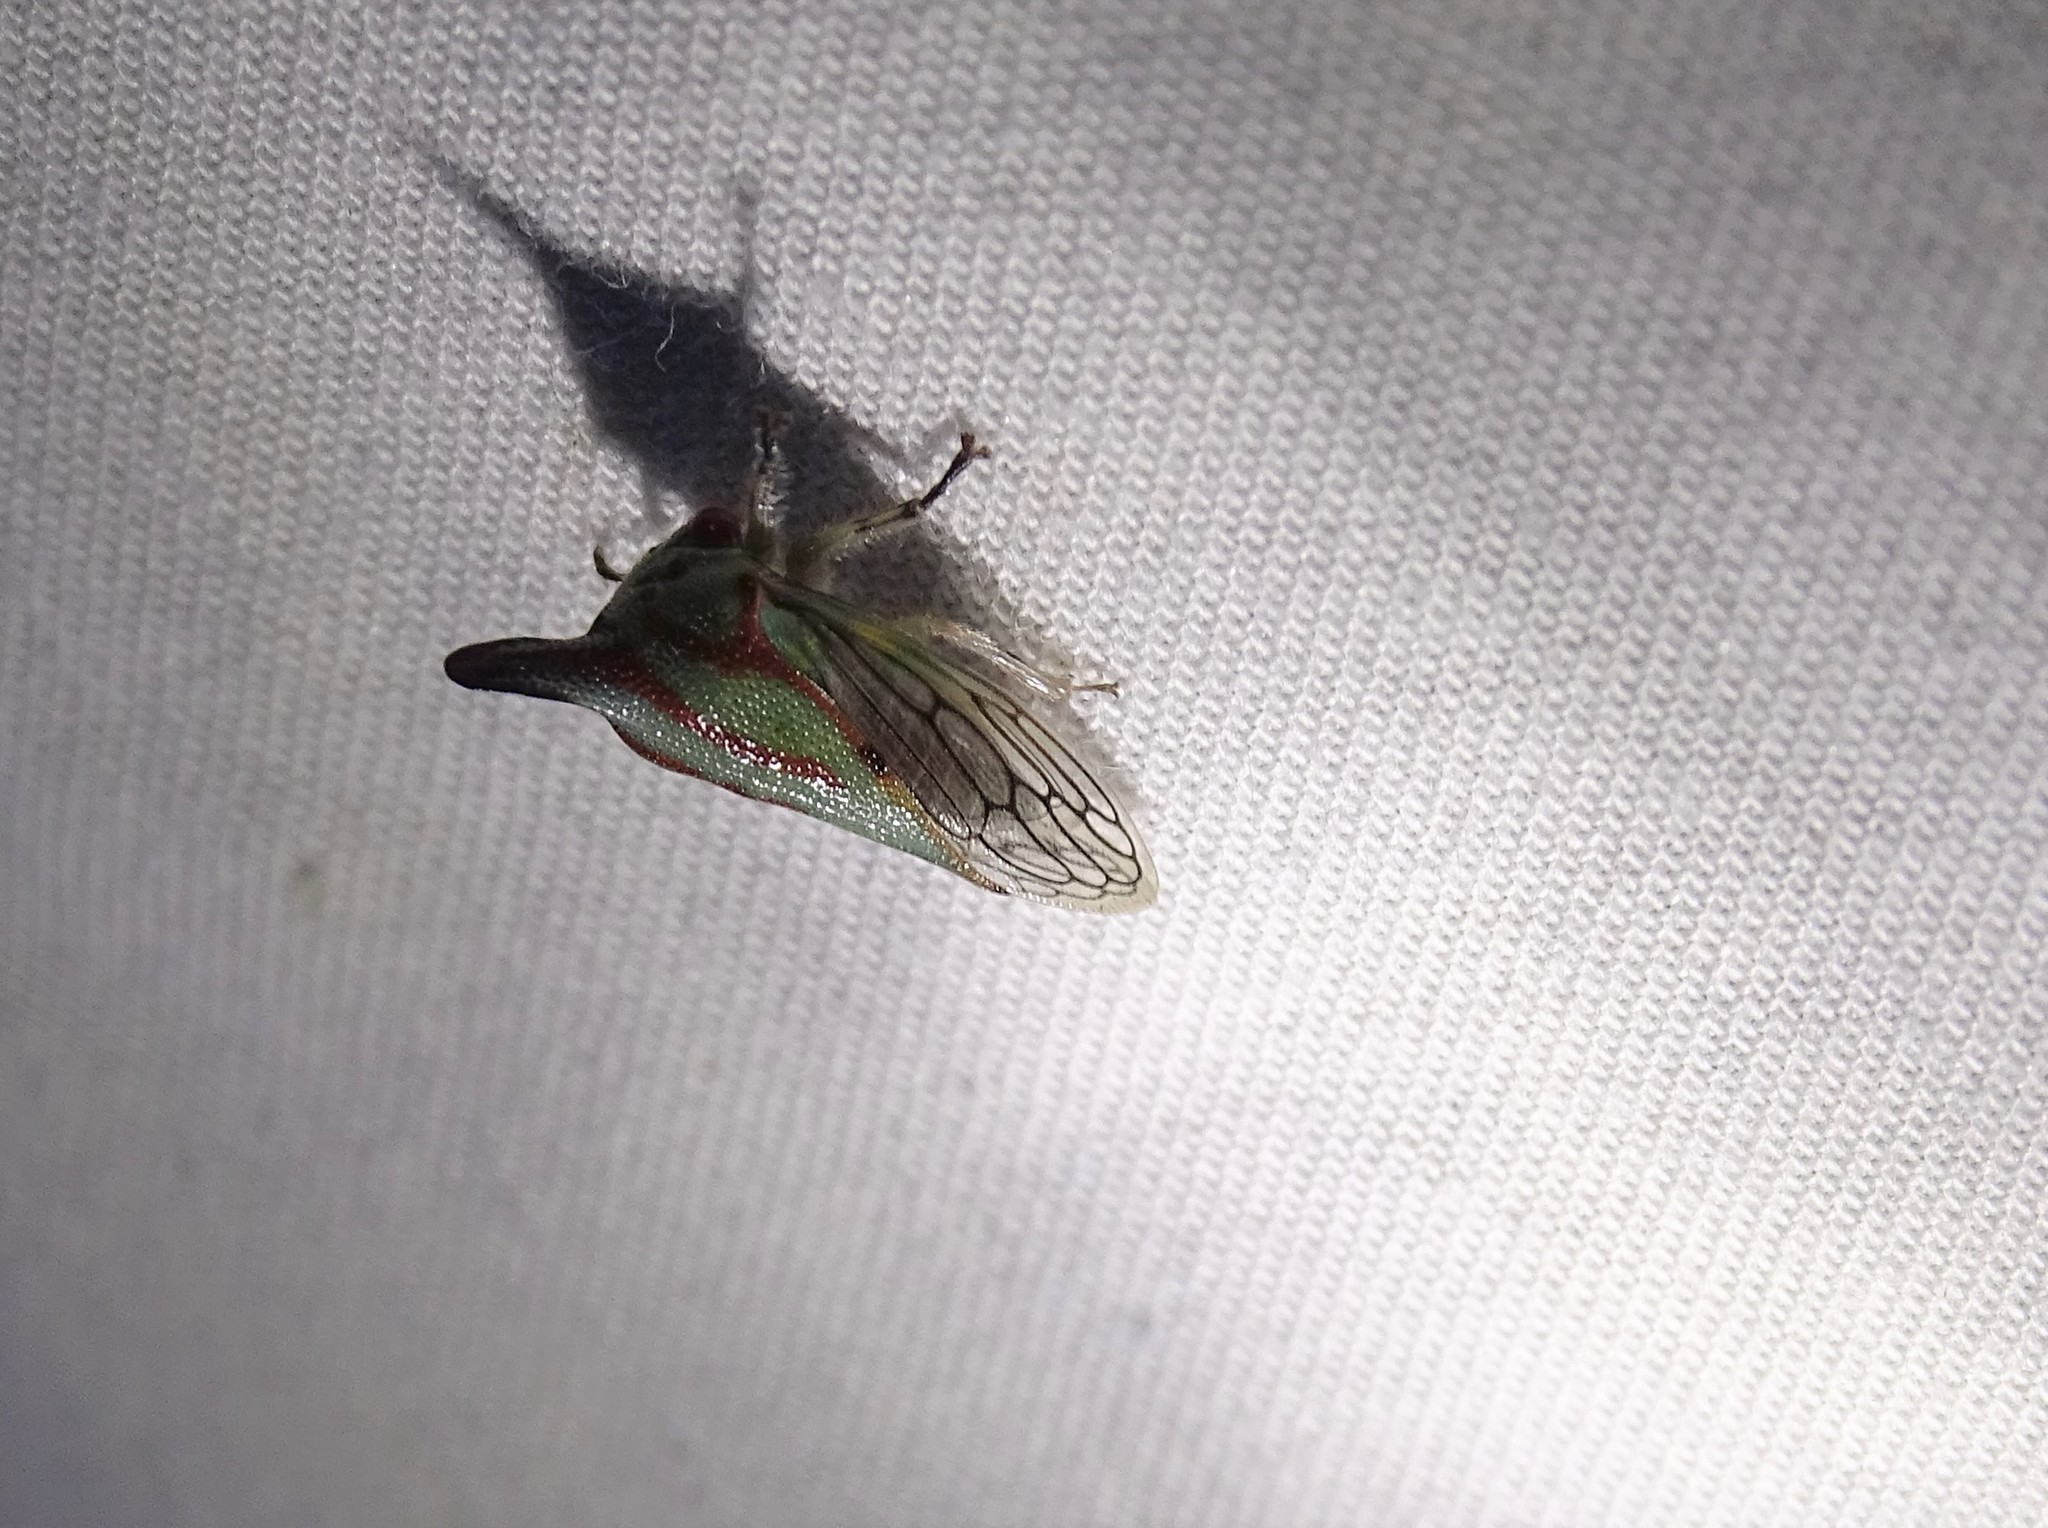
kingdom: Animalia
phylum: Arthropoda
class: Insecta
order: Hemiptera
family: Membracidae
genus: Platycotis
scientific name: Platycotis vittatus
